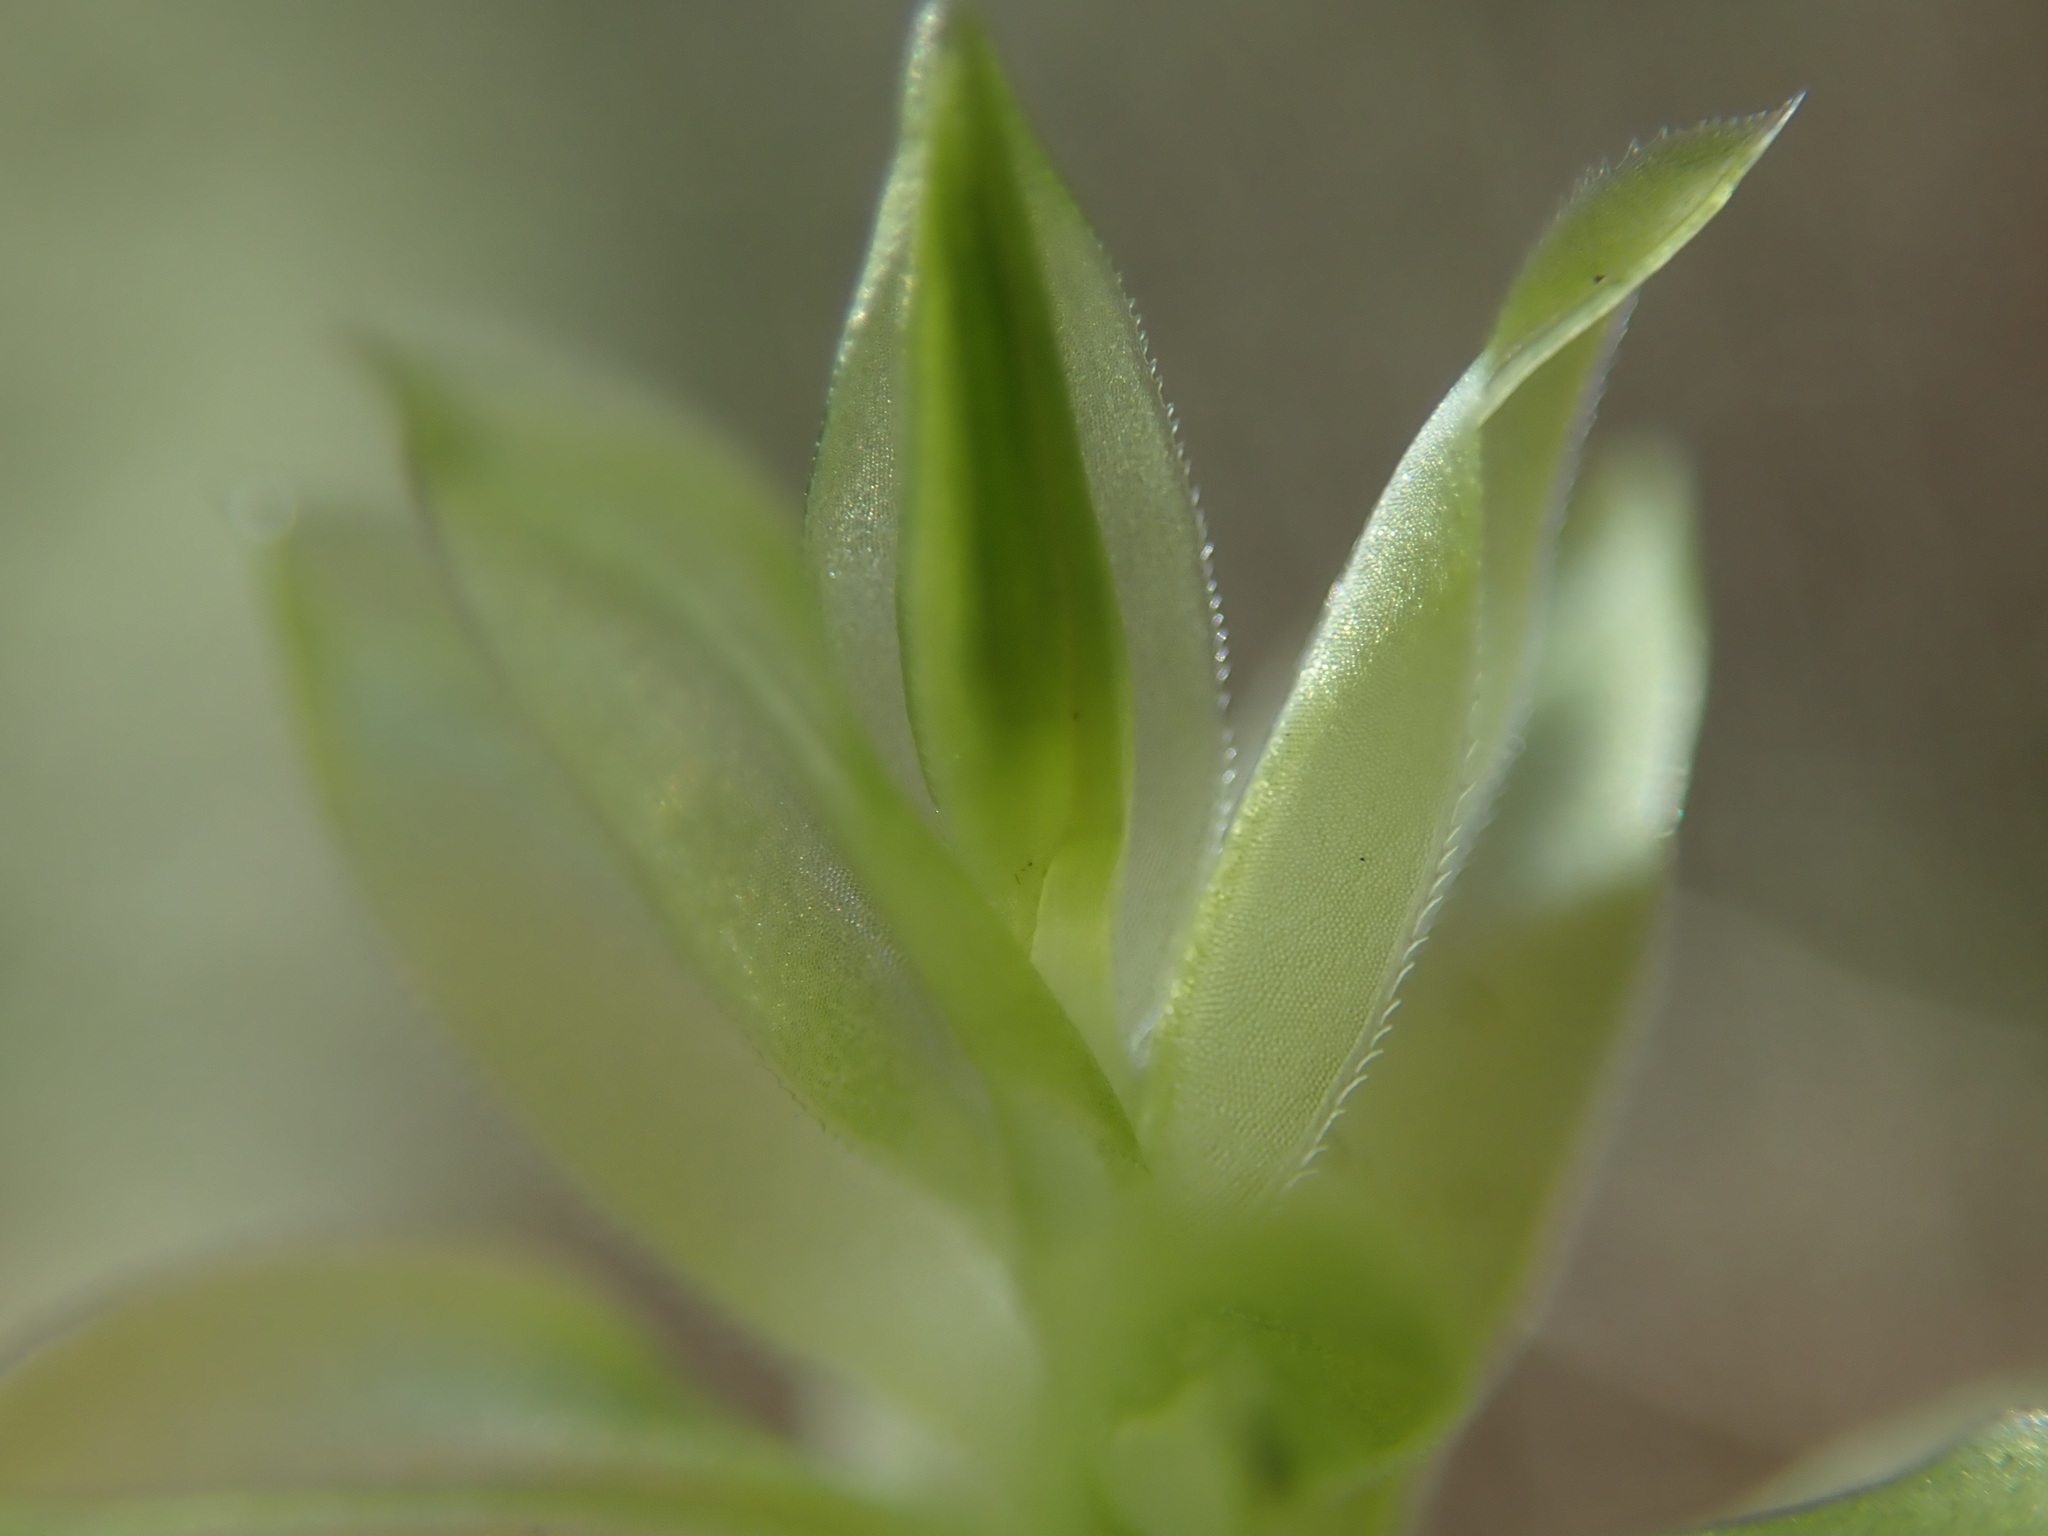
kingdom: Plantae
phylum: Bryophyta
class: Bryopsida
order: Bryales
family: Mniaceae
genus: Plagiomnium
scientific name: Plagiomnium insigne
